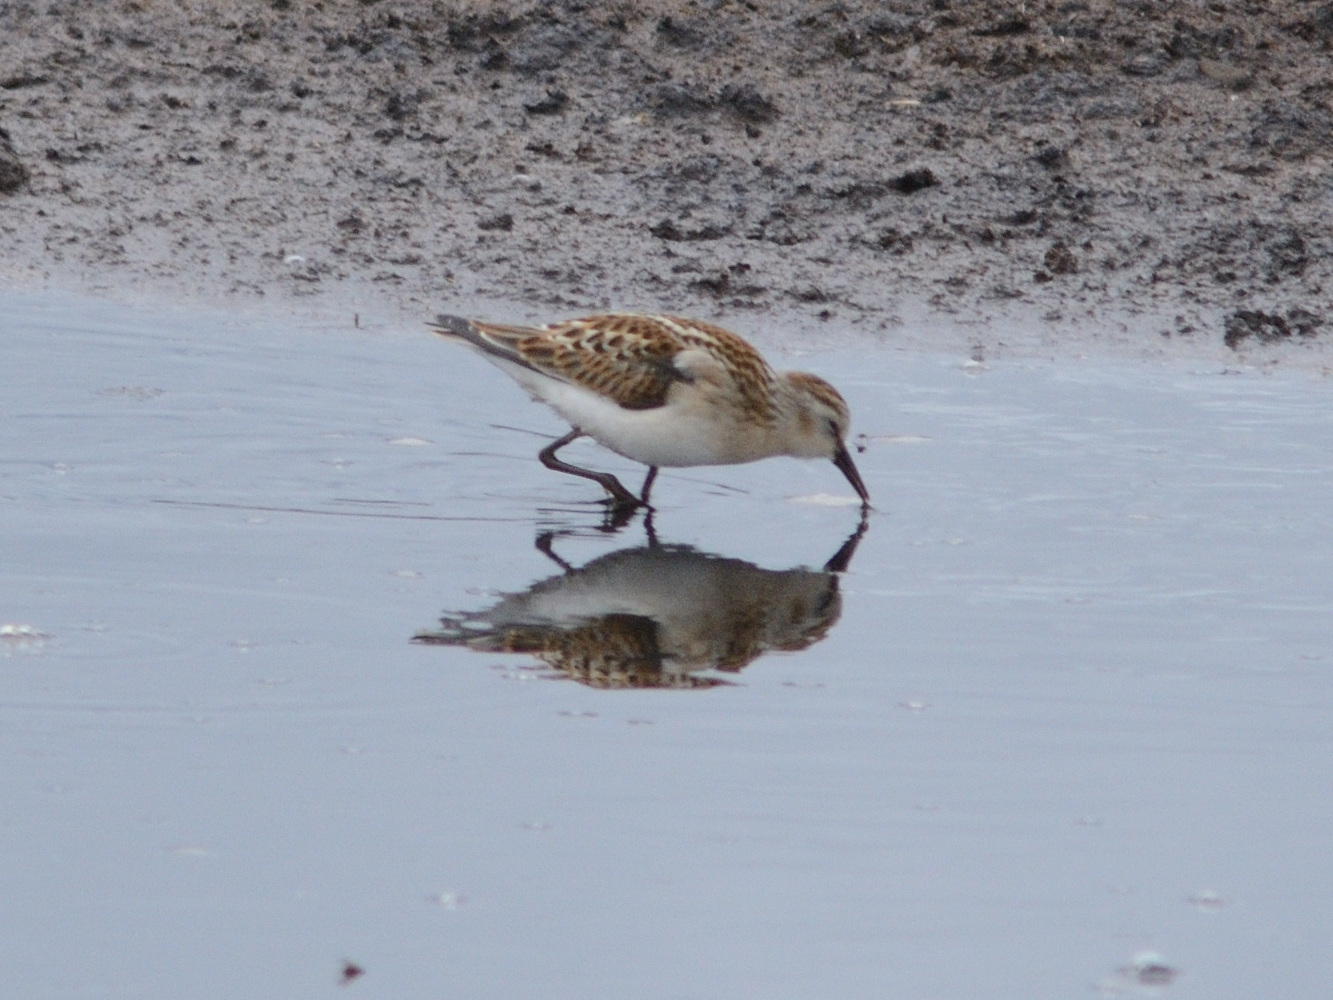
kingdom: Animalia
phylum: Chordata
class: Aves
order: Charadriiformes
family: Scolopacidae
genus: Calidris
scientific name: Calidris minuta
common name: Little stint
